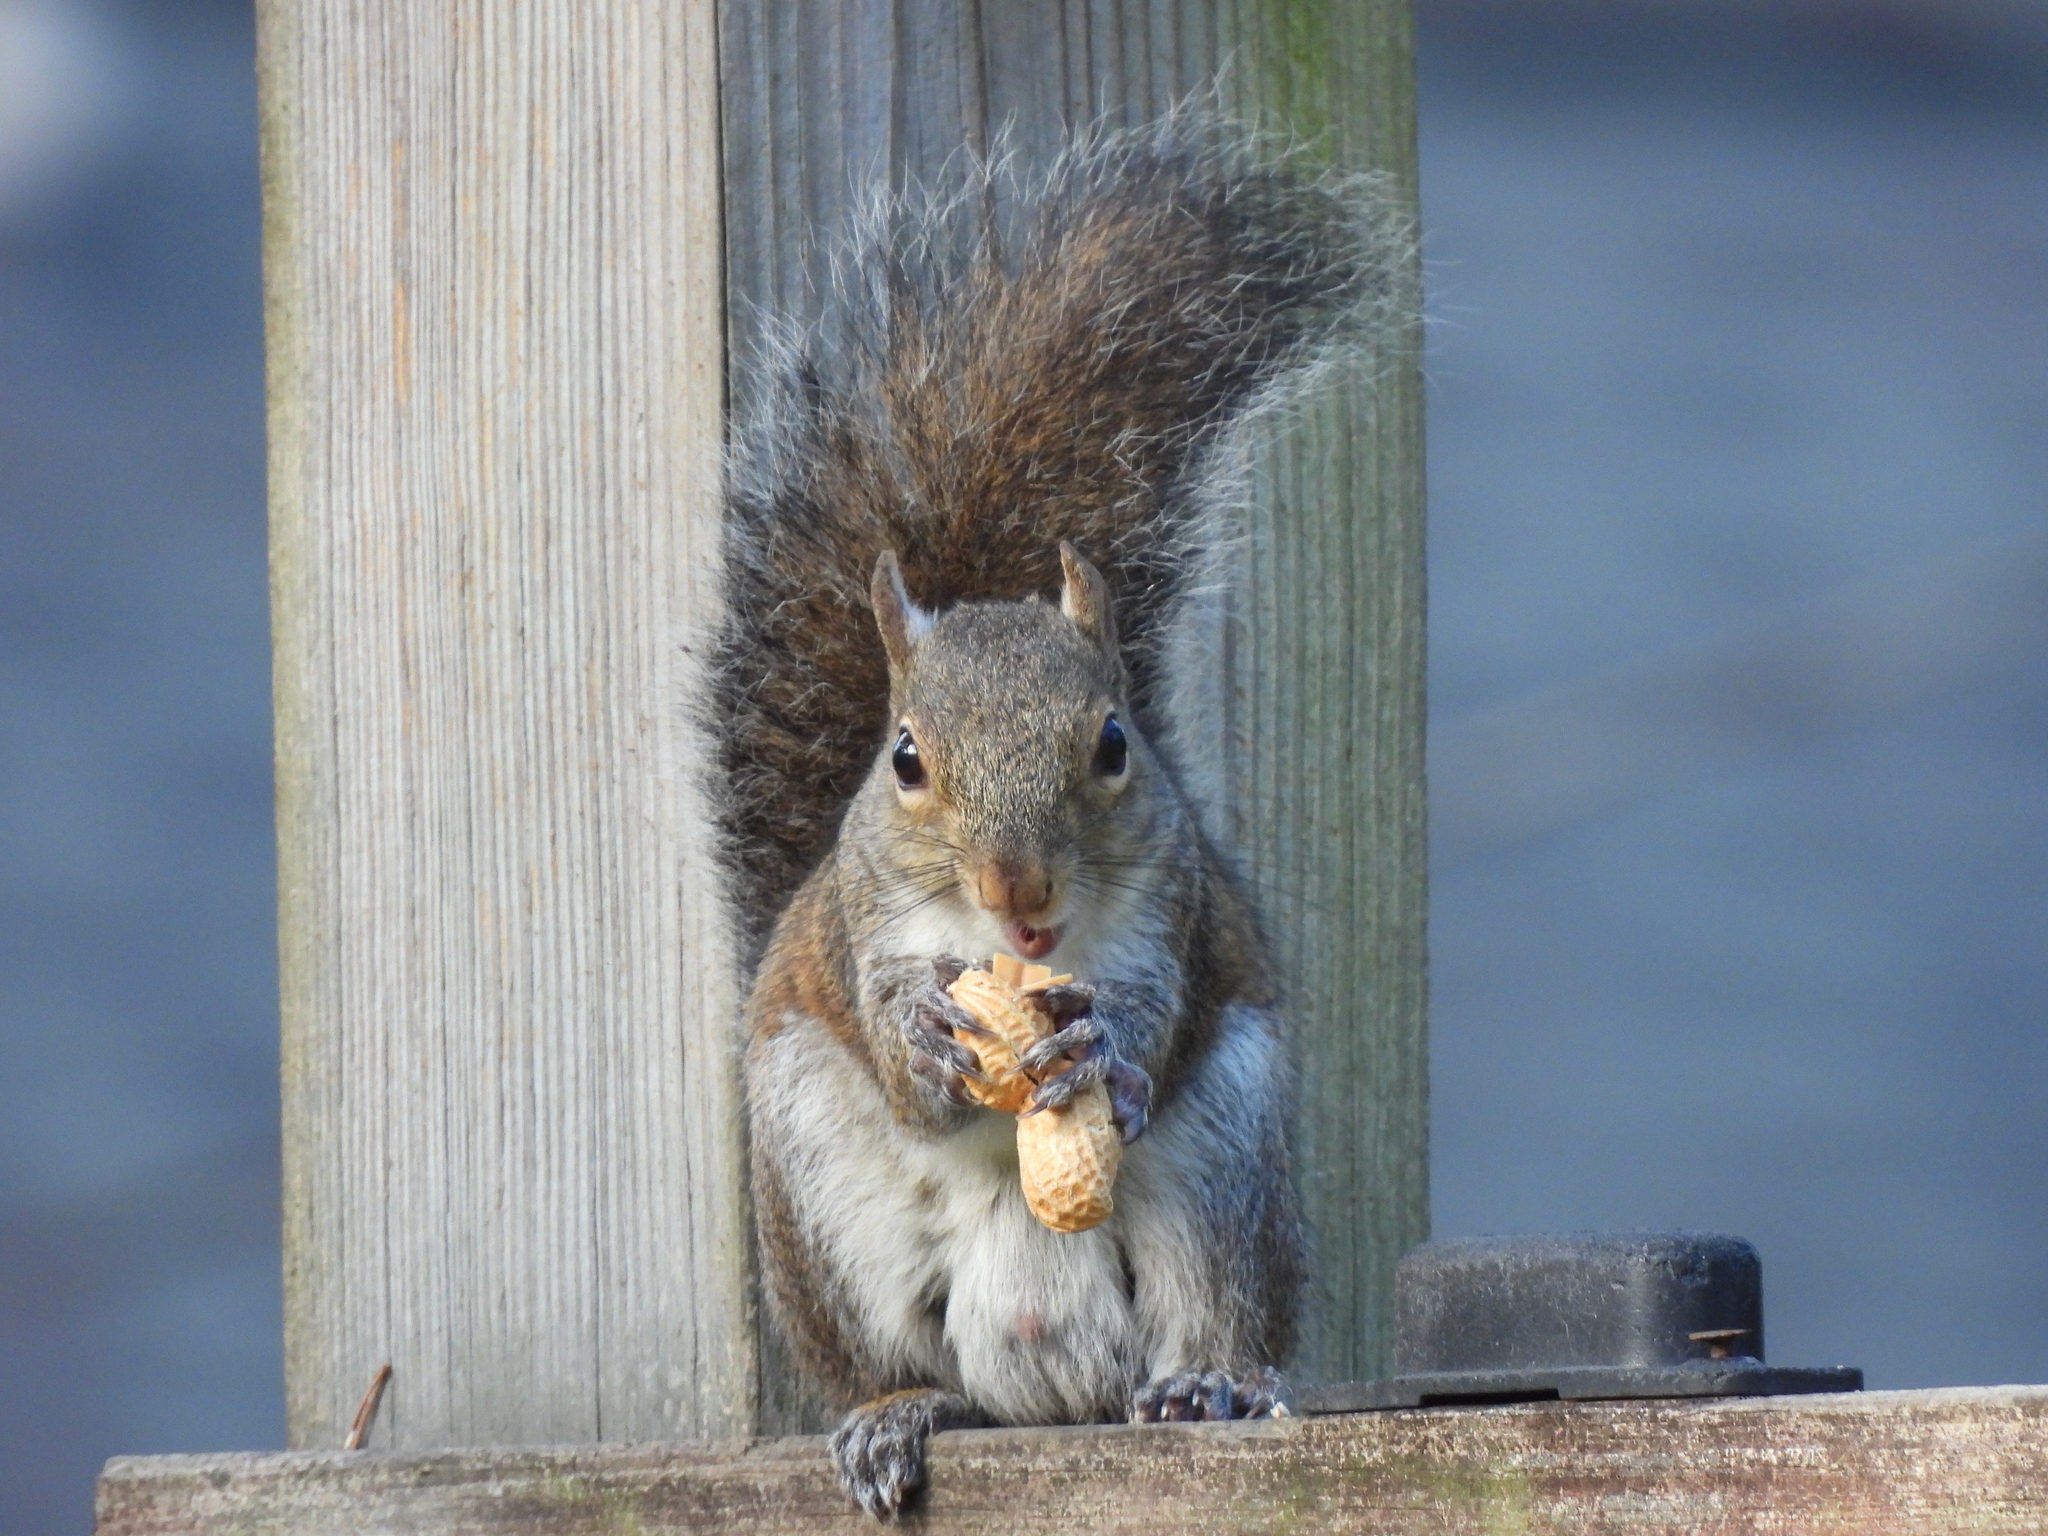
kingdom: Animalia
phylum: Chordata
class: Mammalia
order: Rodentia
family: Sciuridae
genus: Sciurus
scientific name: Sciurus carolinensis
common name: Eastern gray squirrel
